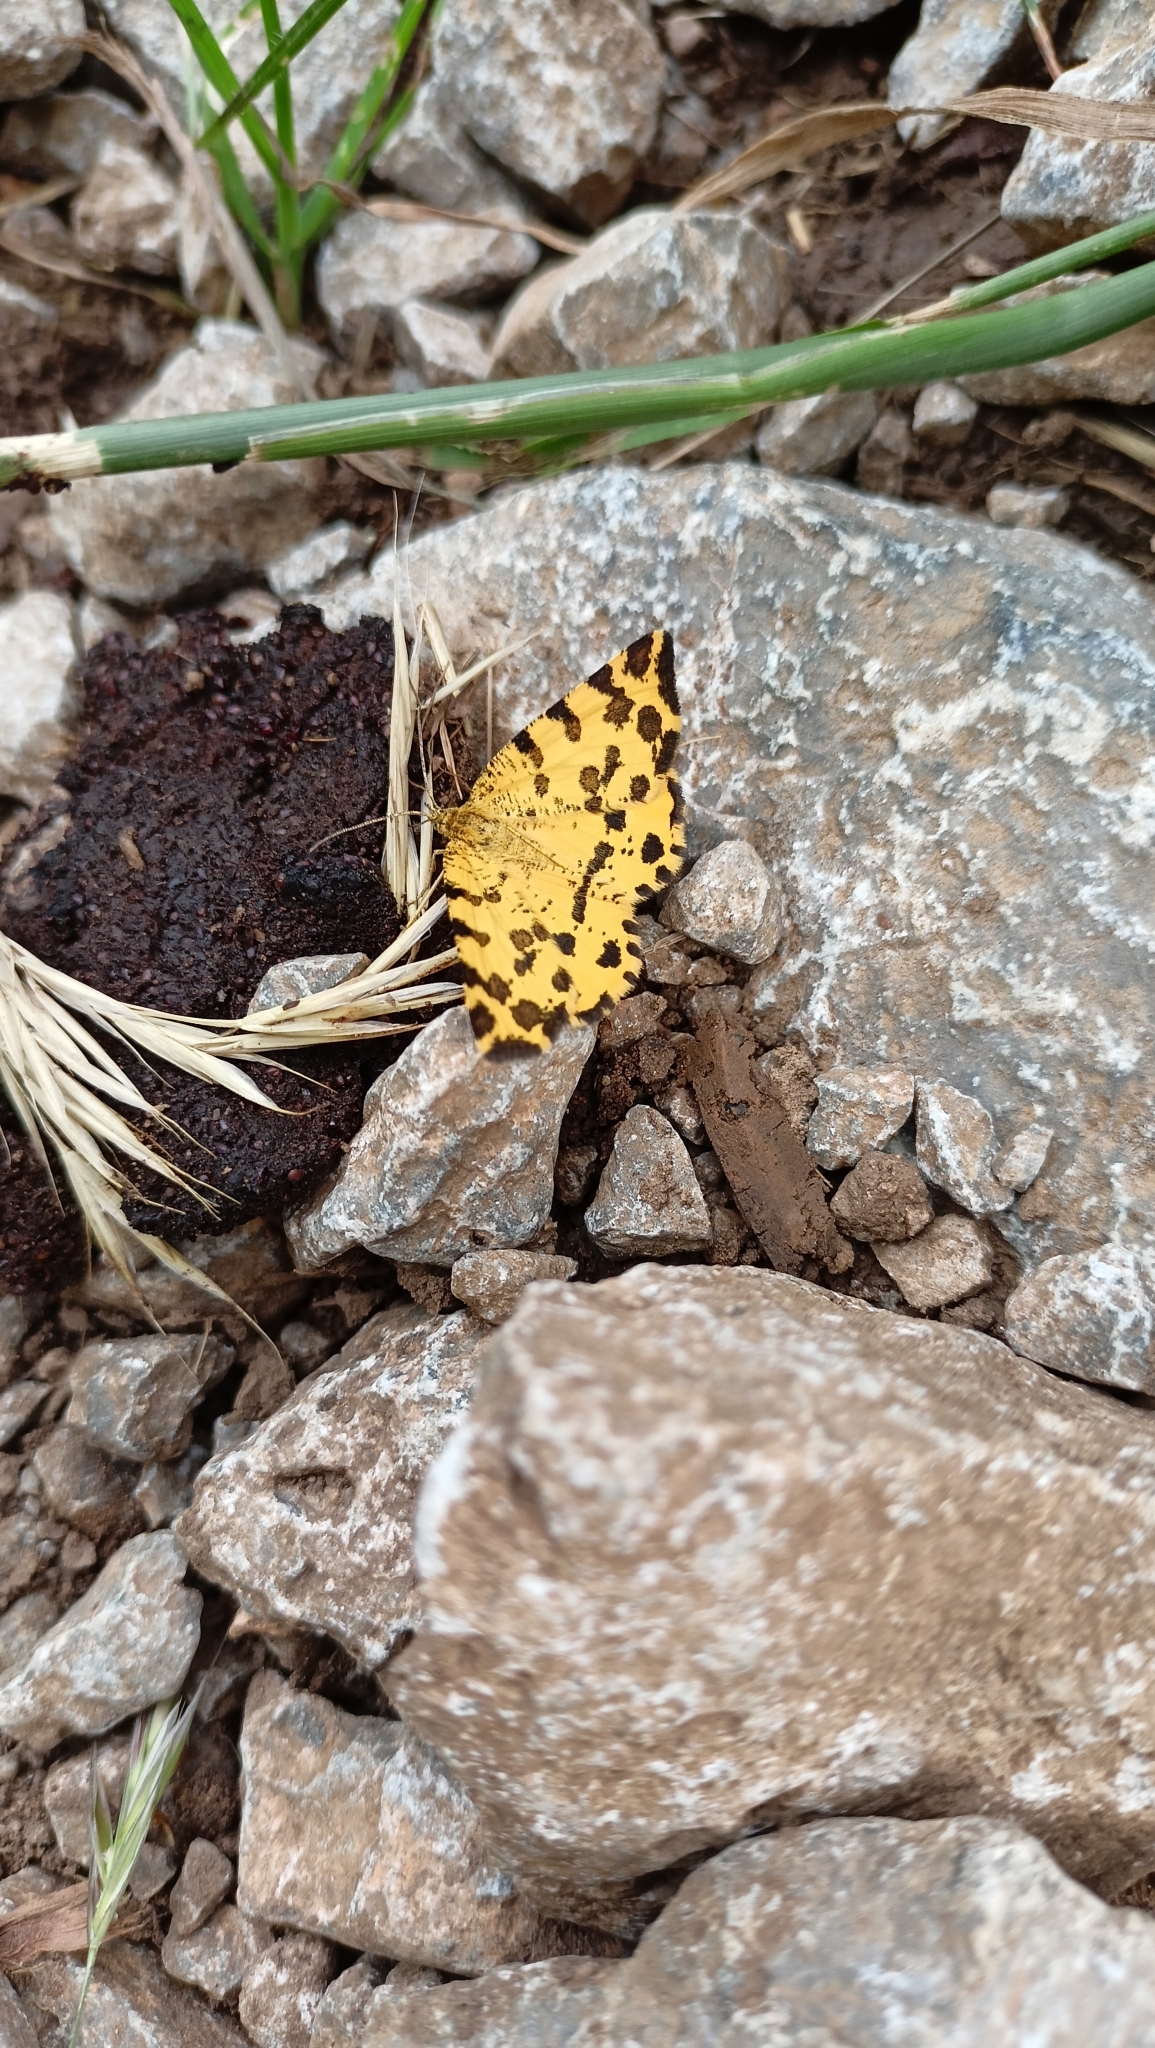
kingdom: Animalia
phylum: Arthropoda
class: Insecta
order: Lepidoptera
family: Geometridae
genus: Pseudopanthera
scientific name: Pseudopanthera macularia
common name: Speckled yellow
